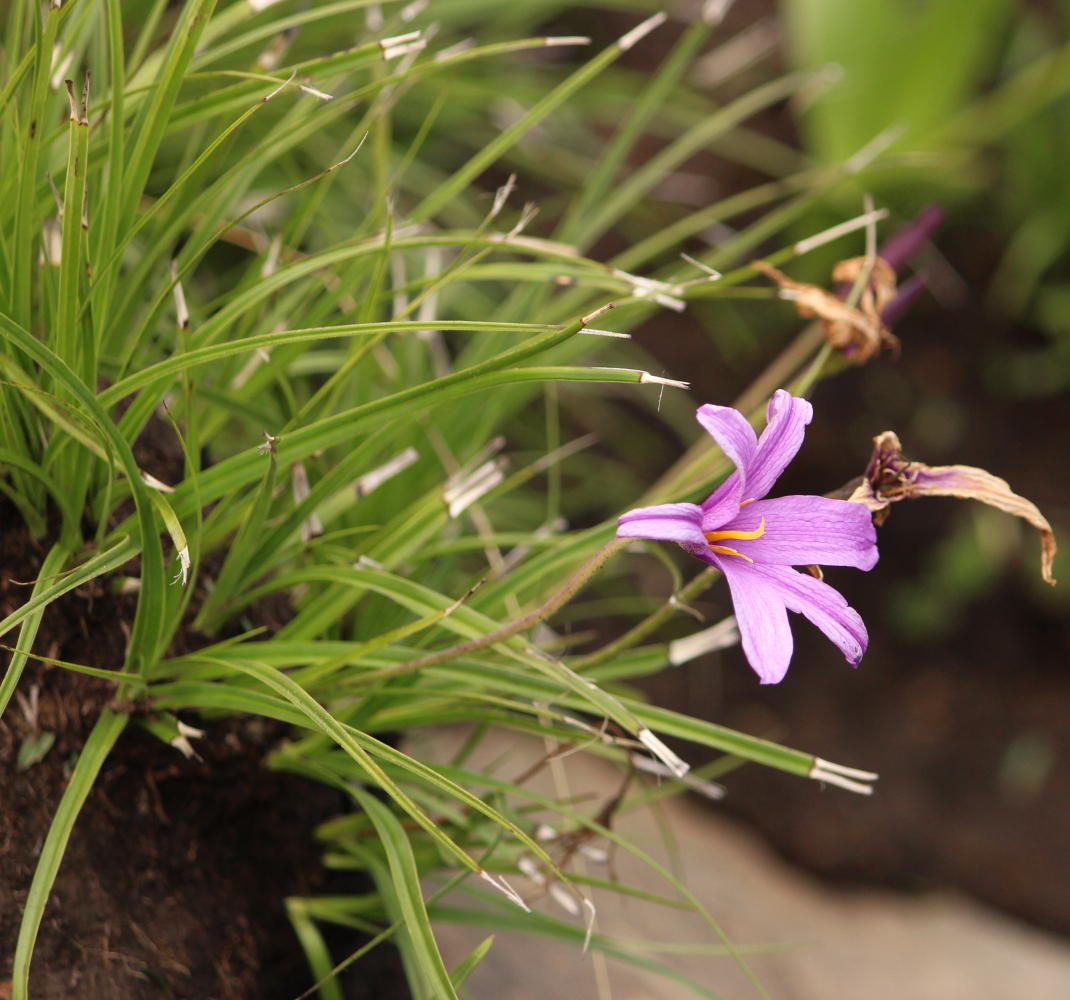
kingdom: Plantae
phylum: Tracheophyta
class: Liliopsida
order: Pandanales
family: Velloziaceae
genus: Xerophyta
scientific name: Xerophyta viscosa
